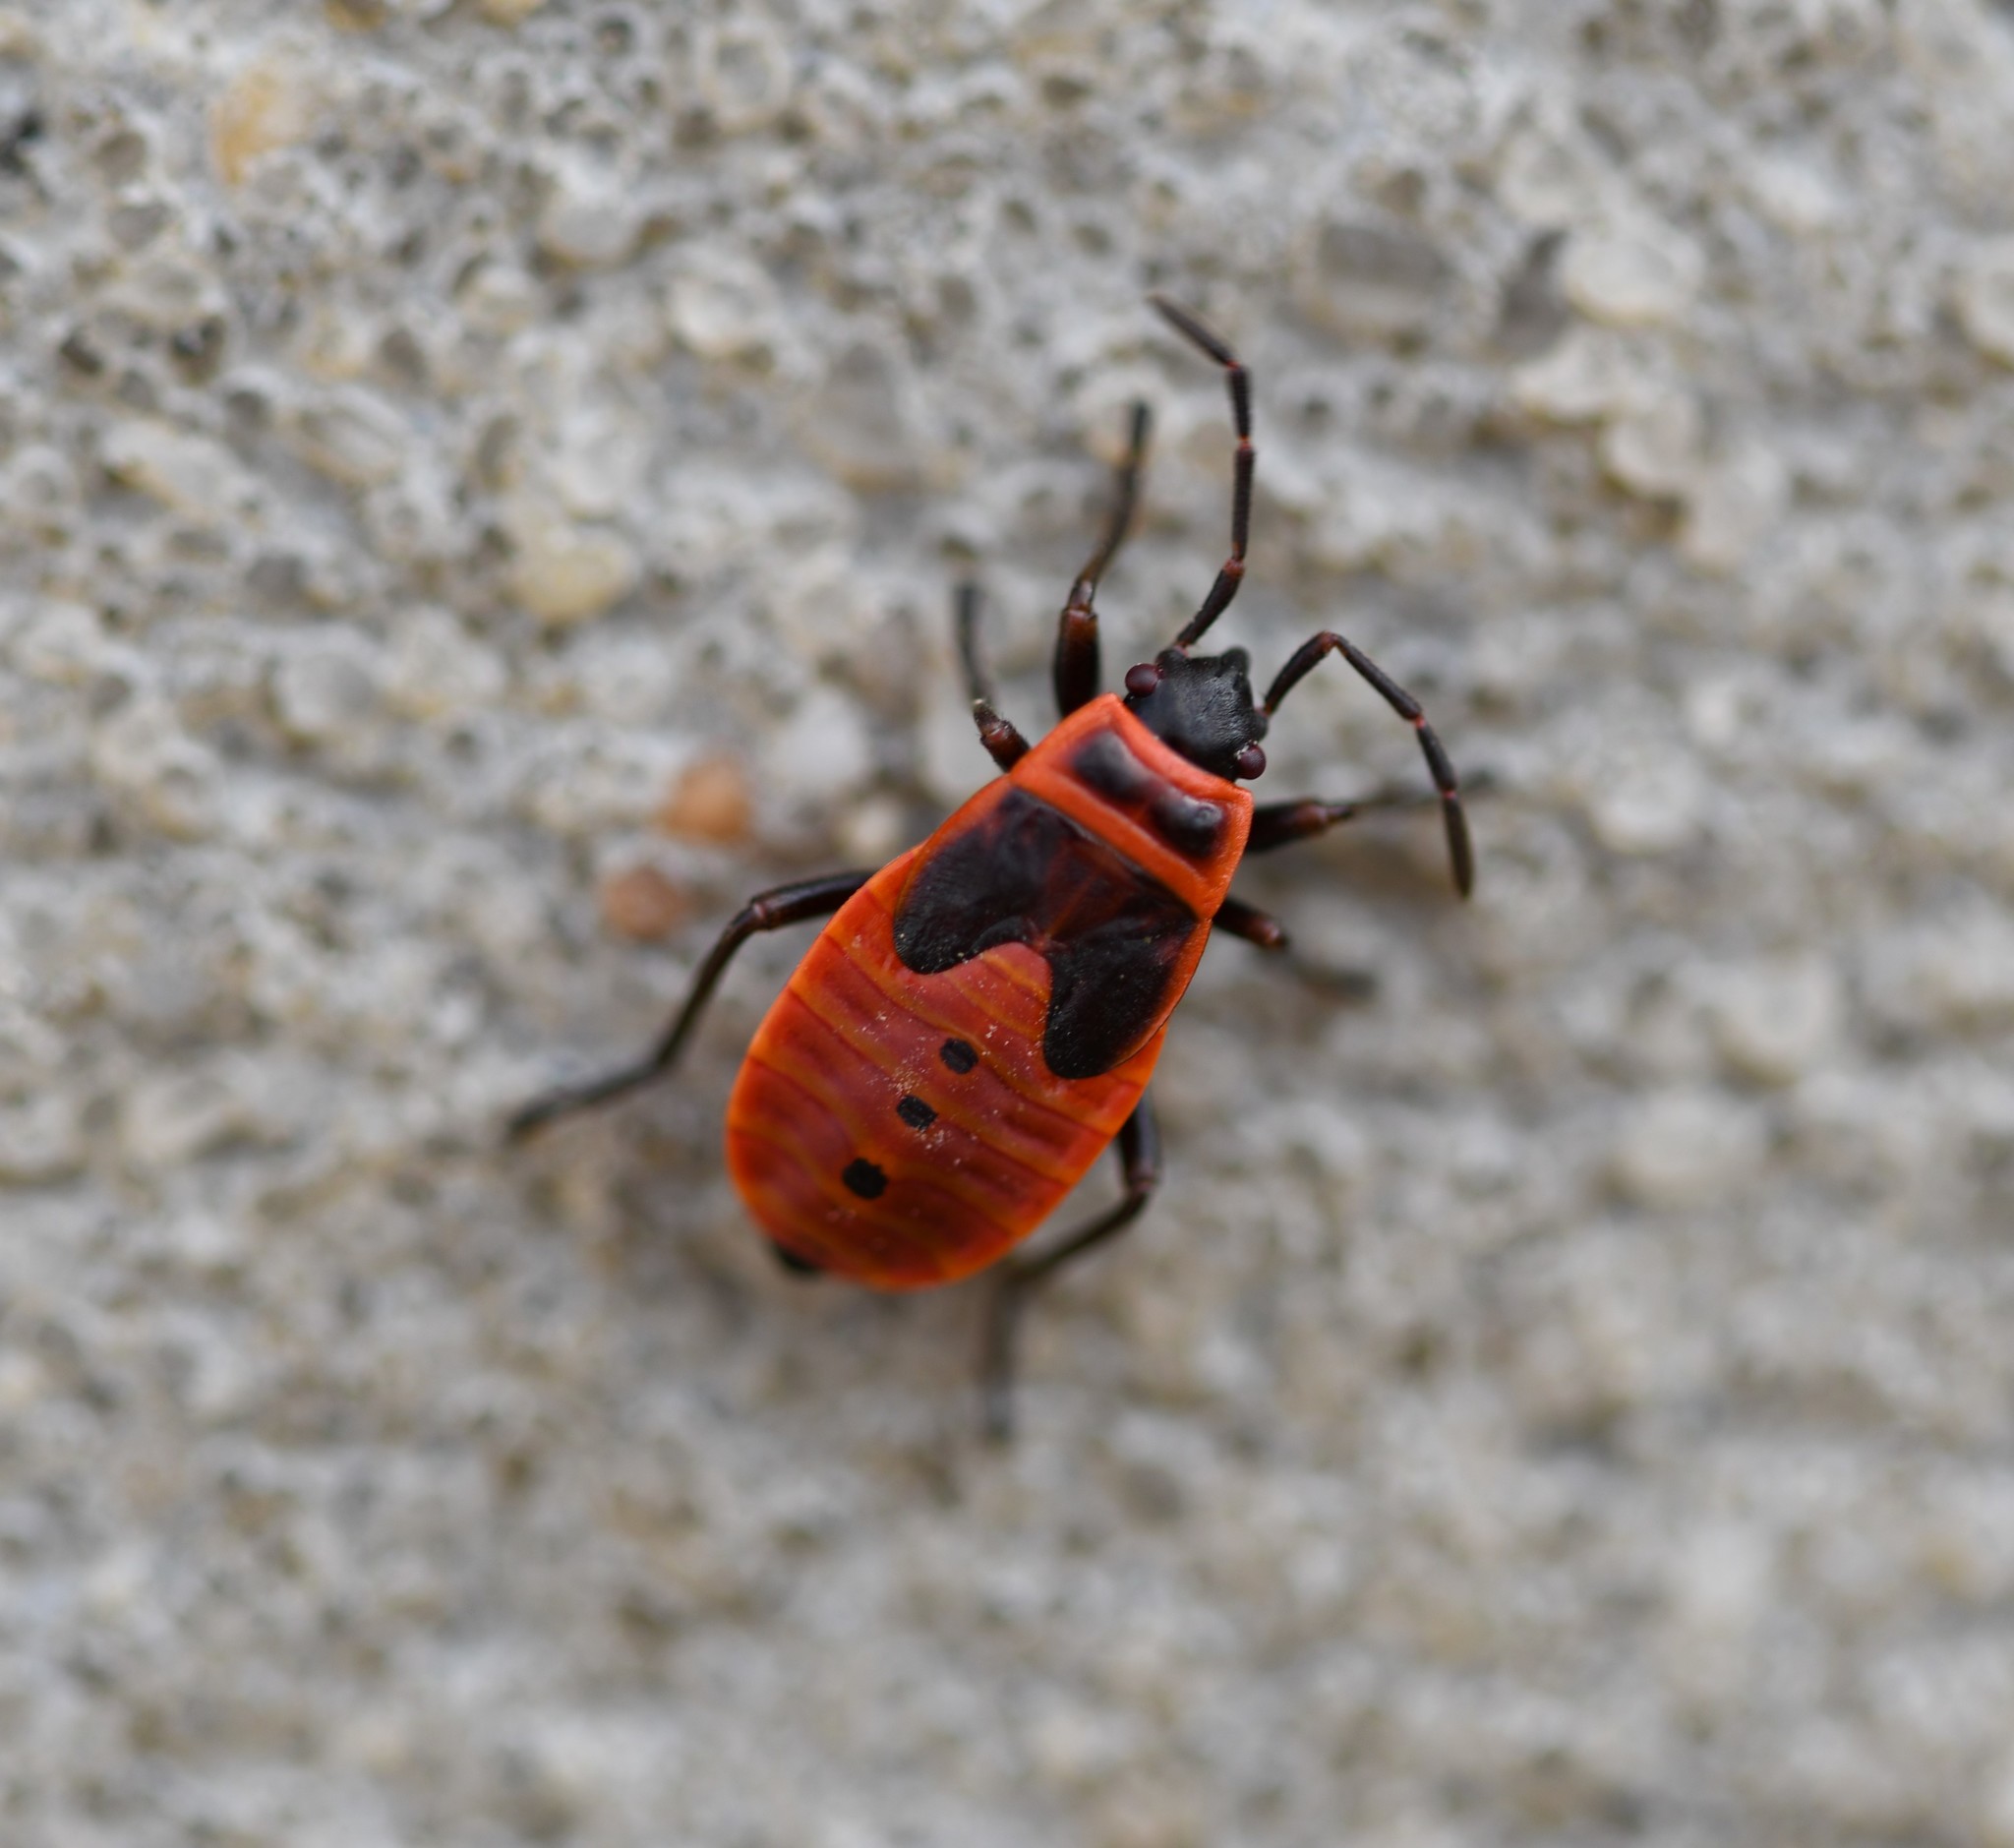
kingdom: Animalia
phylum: Arthropoda
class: Insecta
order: Hemiptera
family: Pyrrhocoridae
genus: Pyrrhocoris
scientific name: Pyrrhocoris apterus
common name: Firebug
